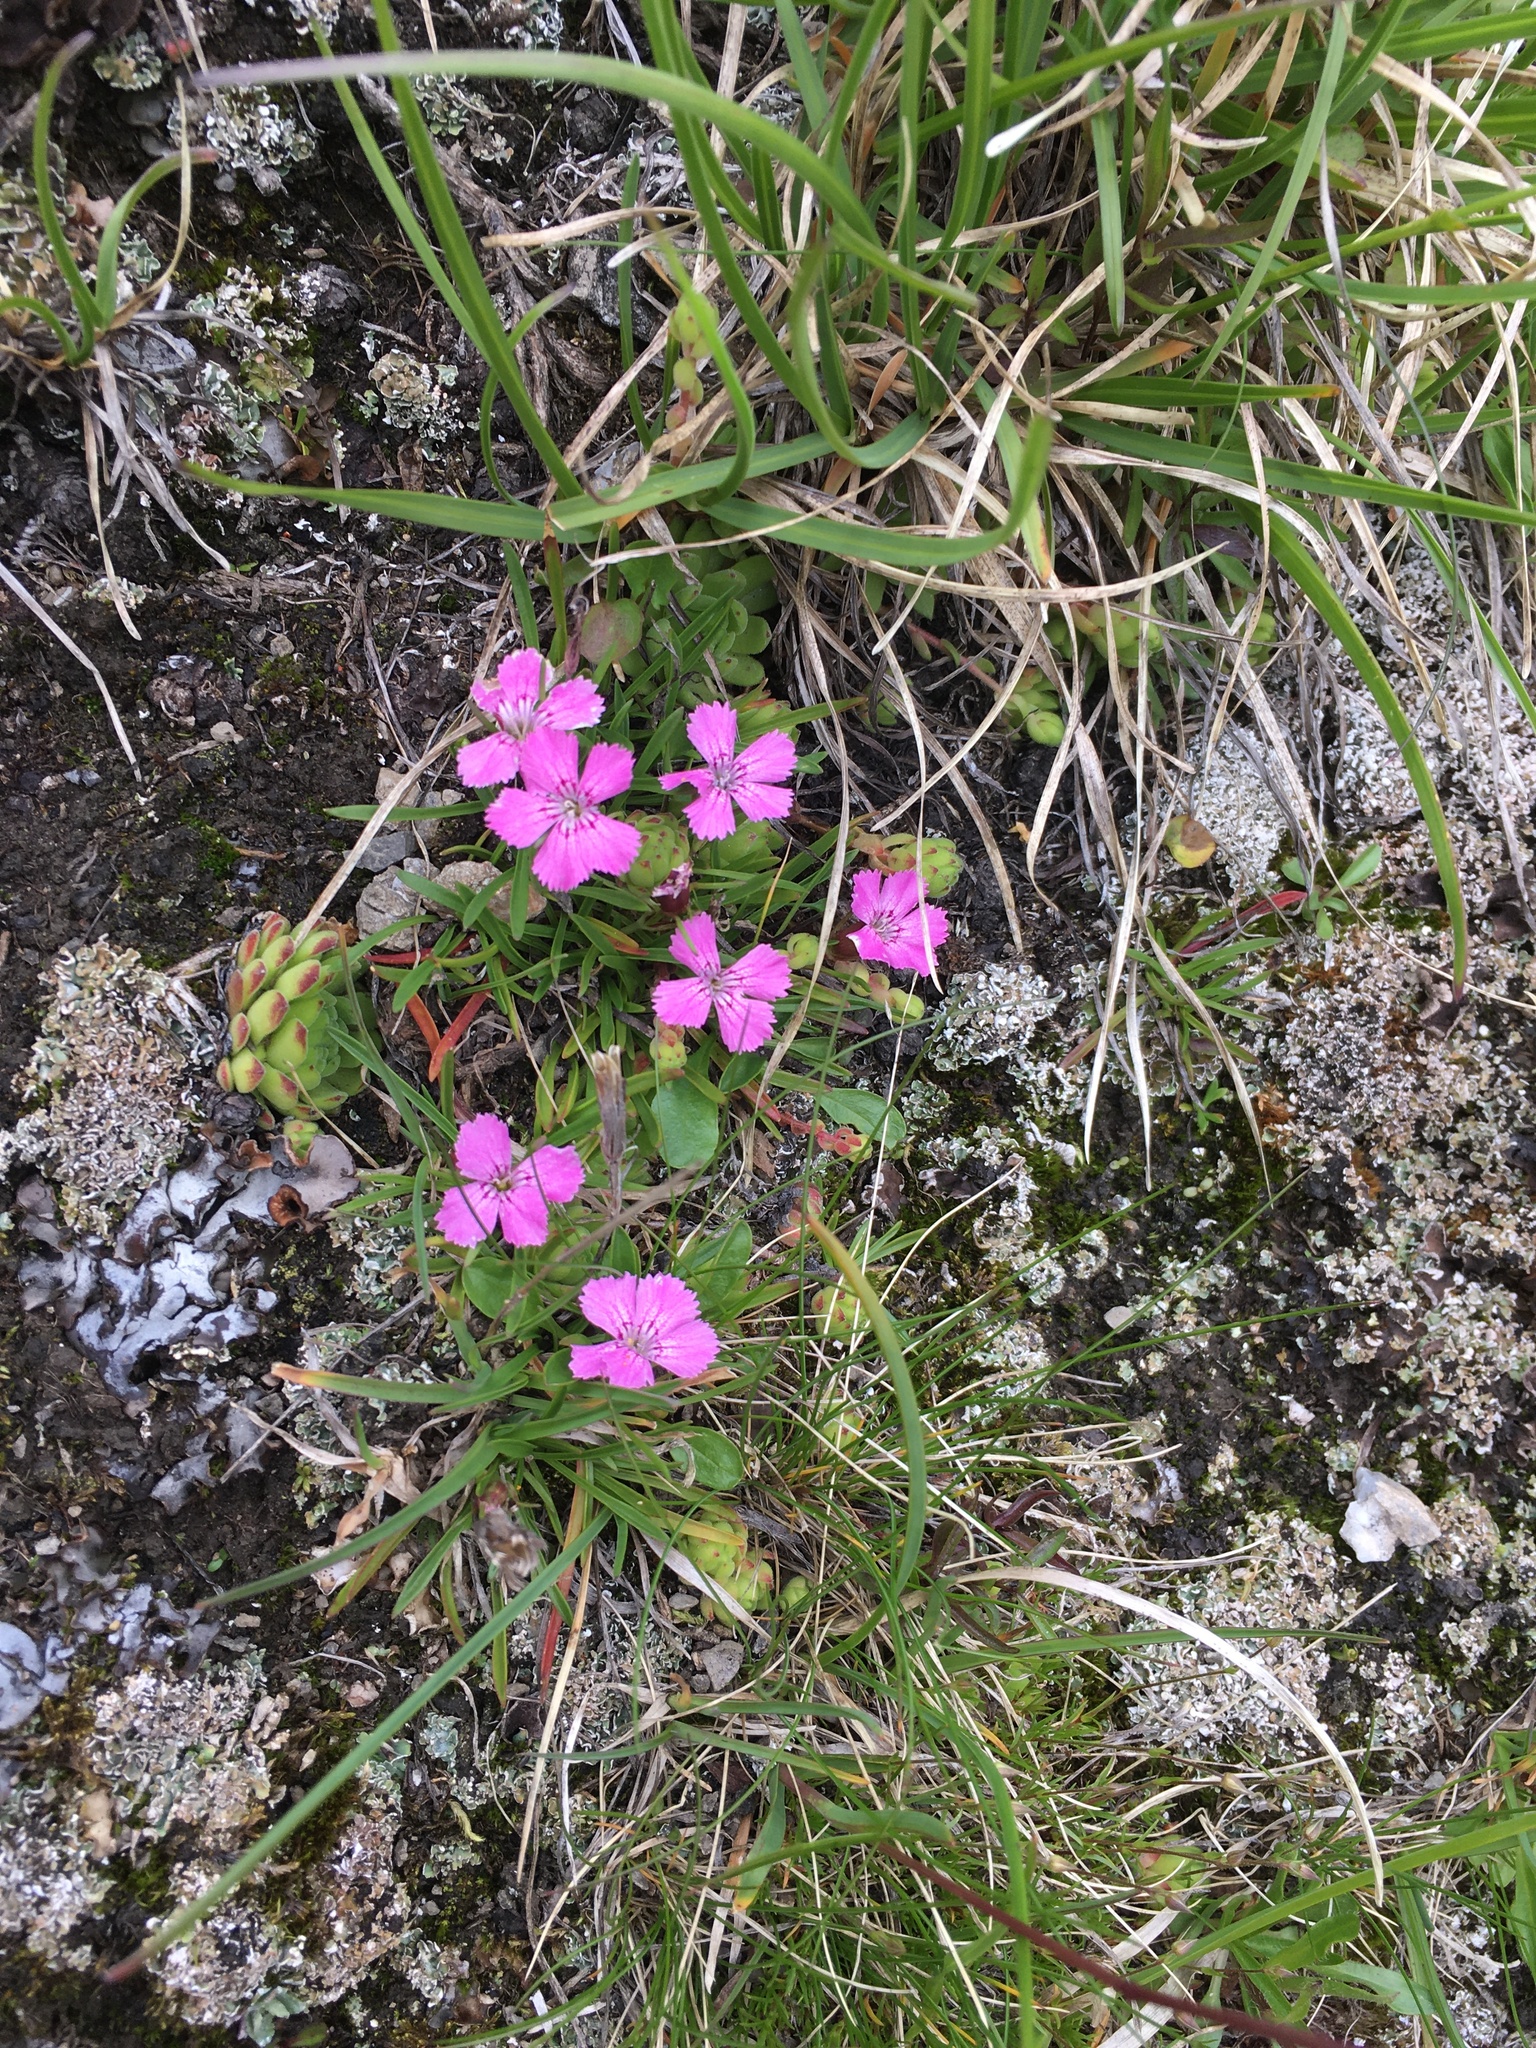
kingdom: Plantae
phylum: Tracheophyta
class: Magnoliopsida
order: Caryophyllales
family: Caryophyllaceae
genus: Dianthus
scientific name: Dianthus glacialis
